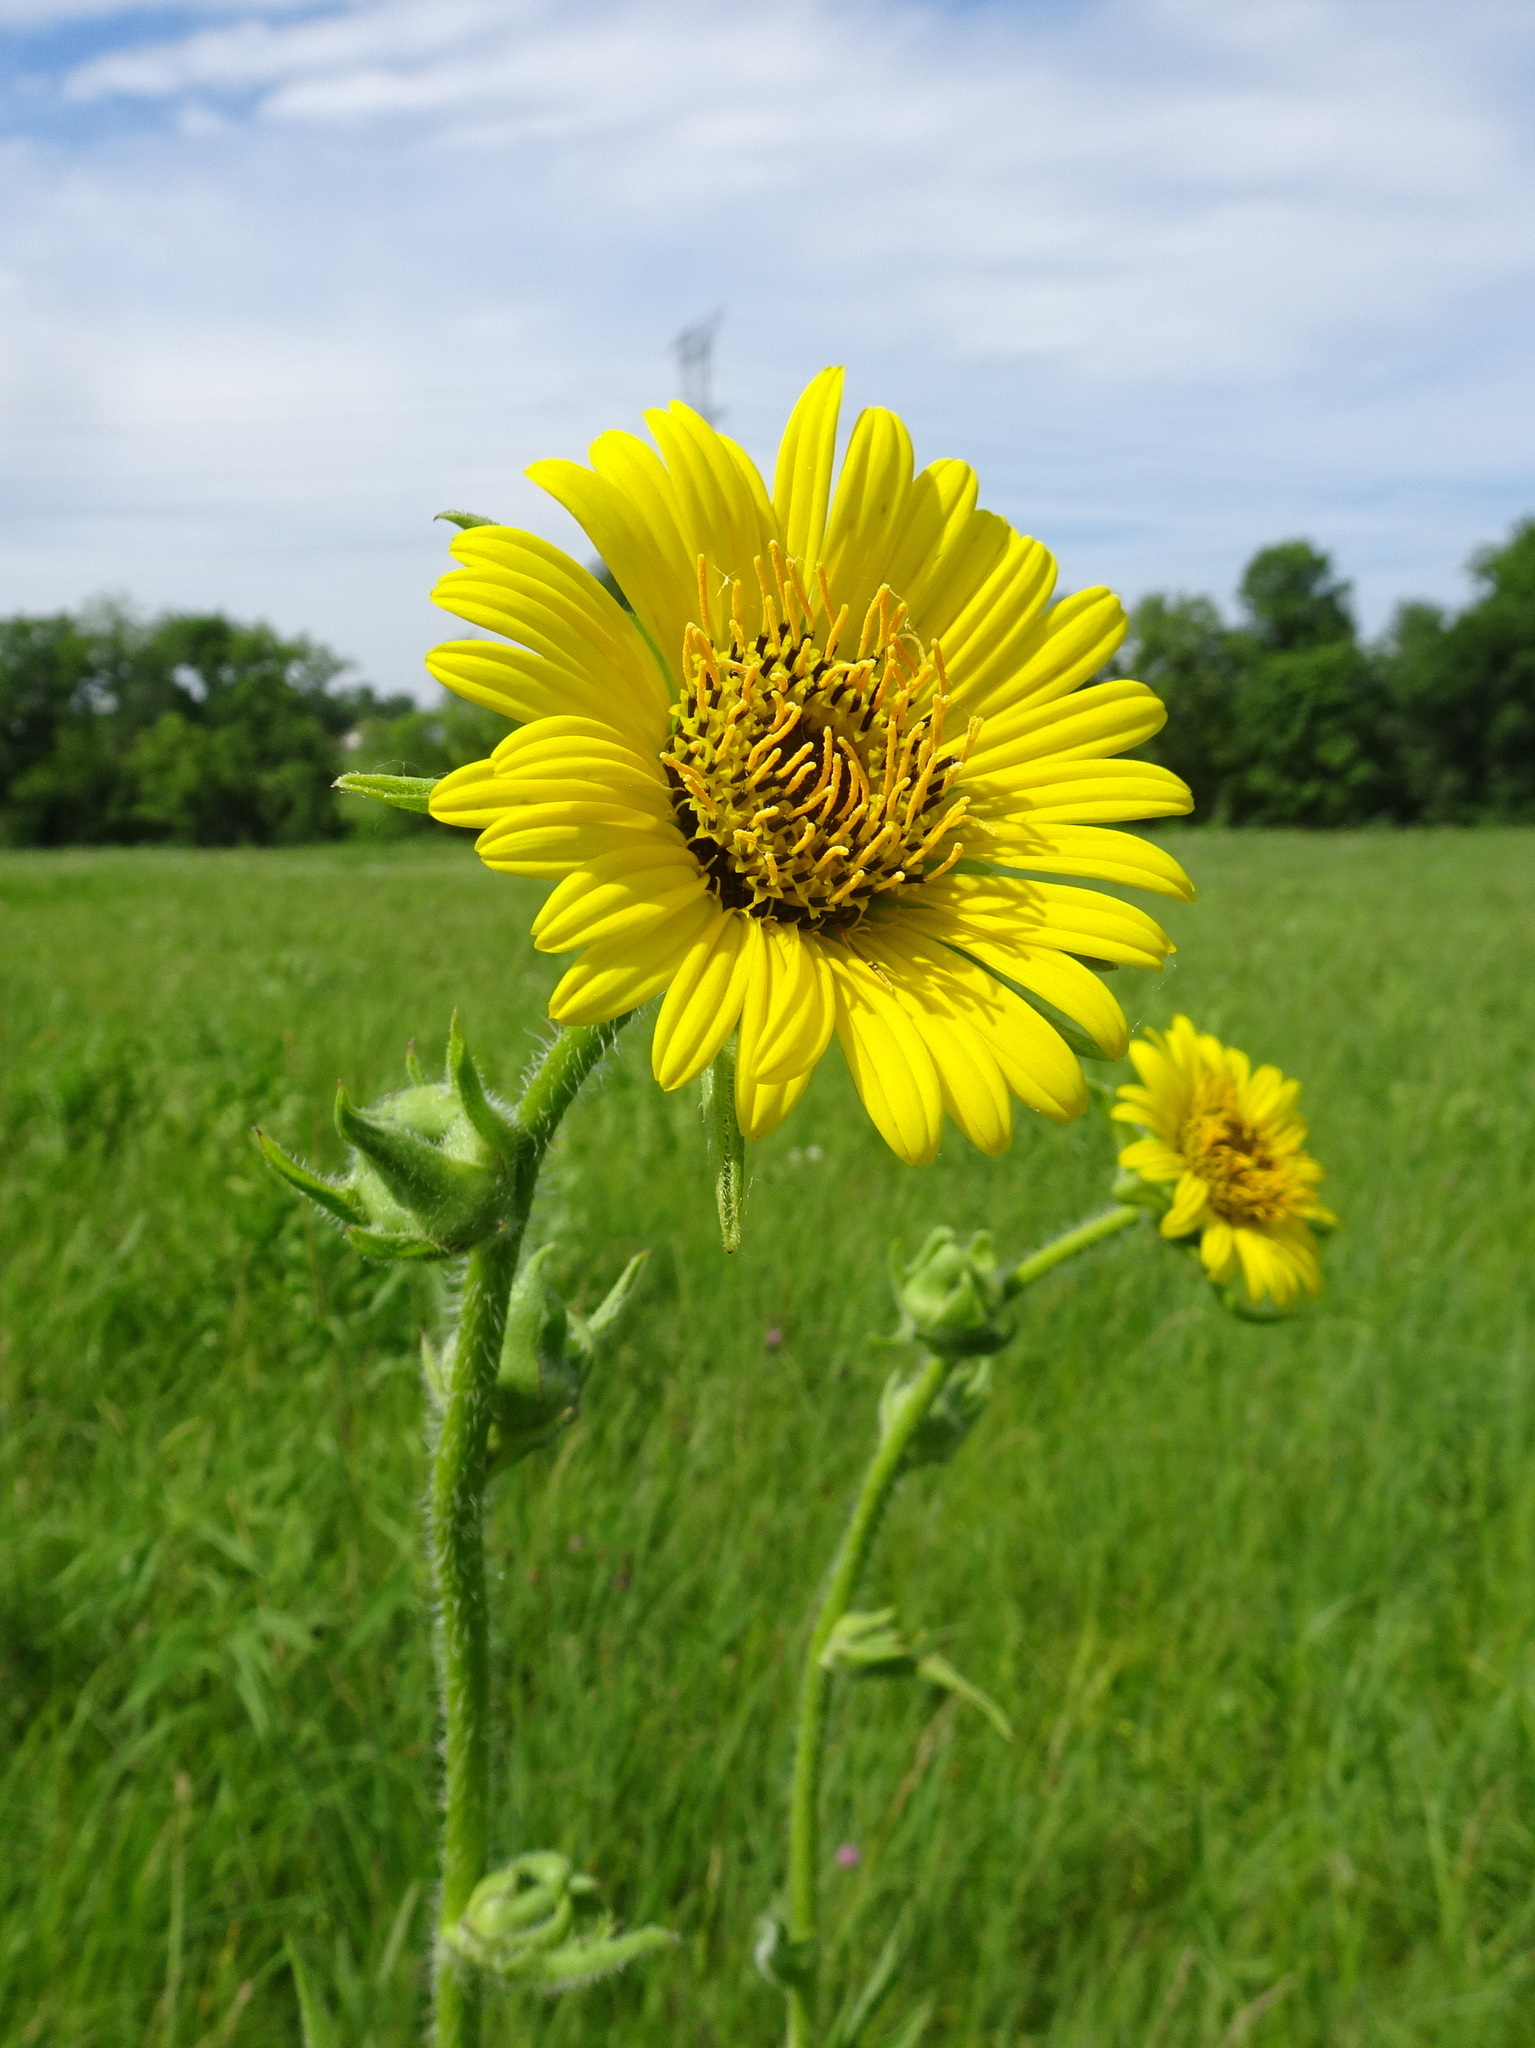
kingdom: Plantae
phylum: Tracheophyta
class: Magnoliopsida
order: Asterales
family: Asteraceae
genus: Silphium
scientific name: Silphium laciniatum
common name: Polarplant
